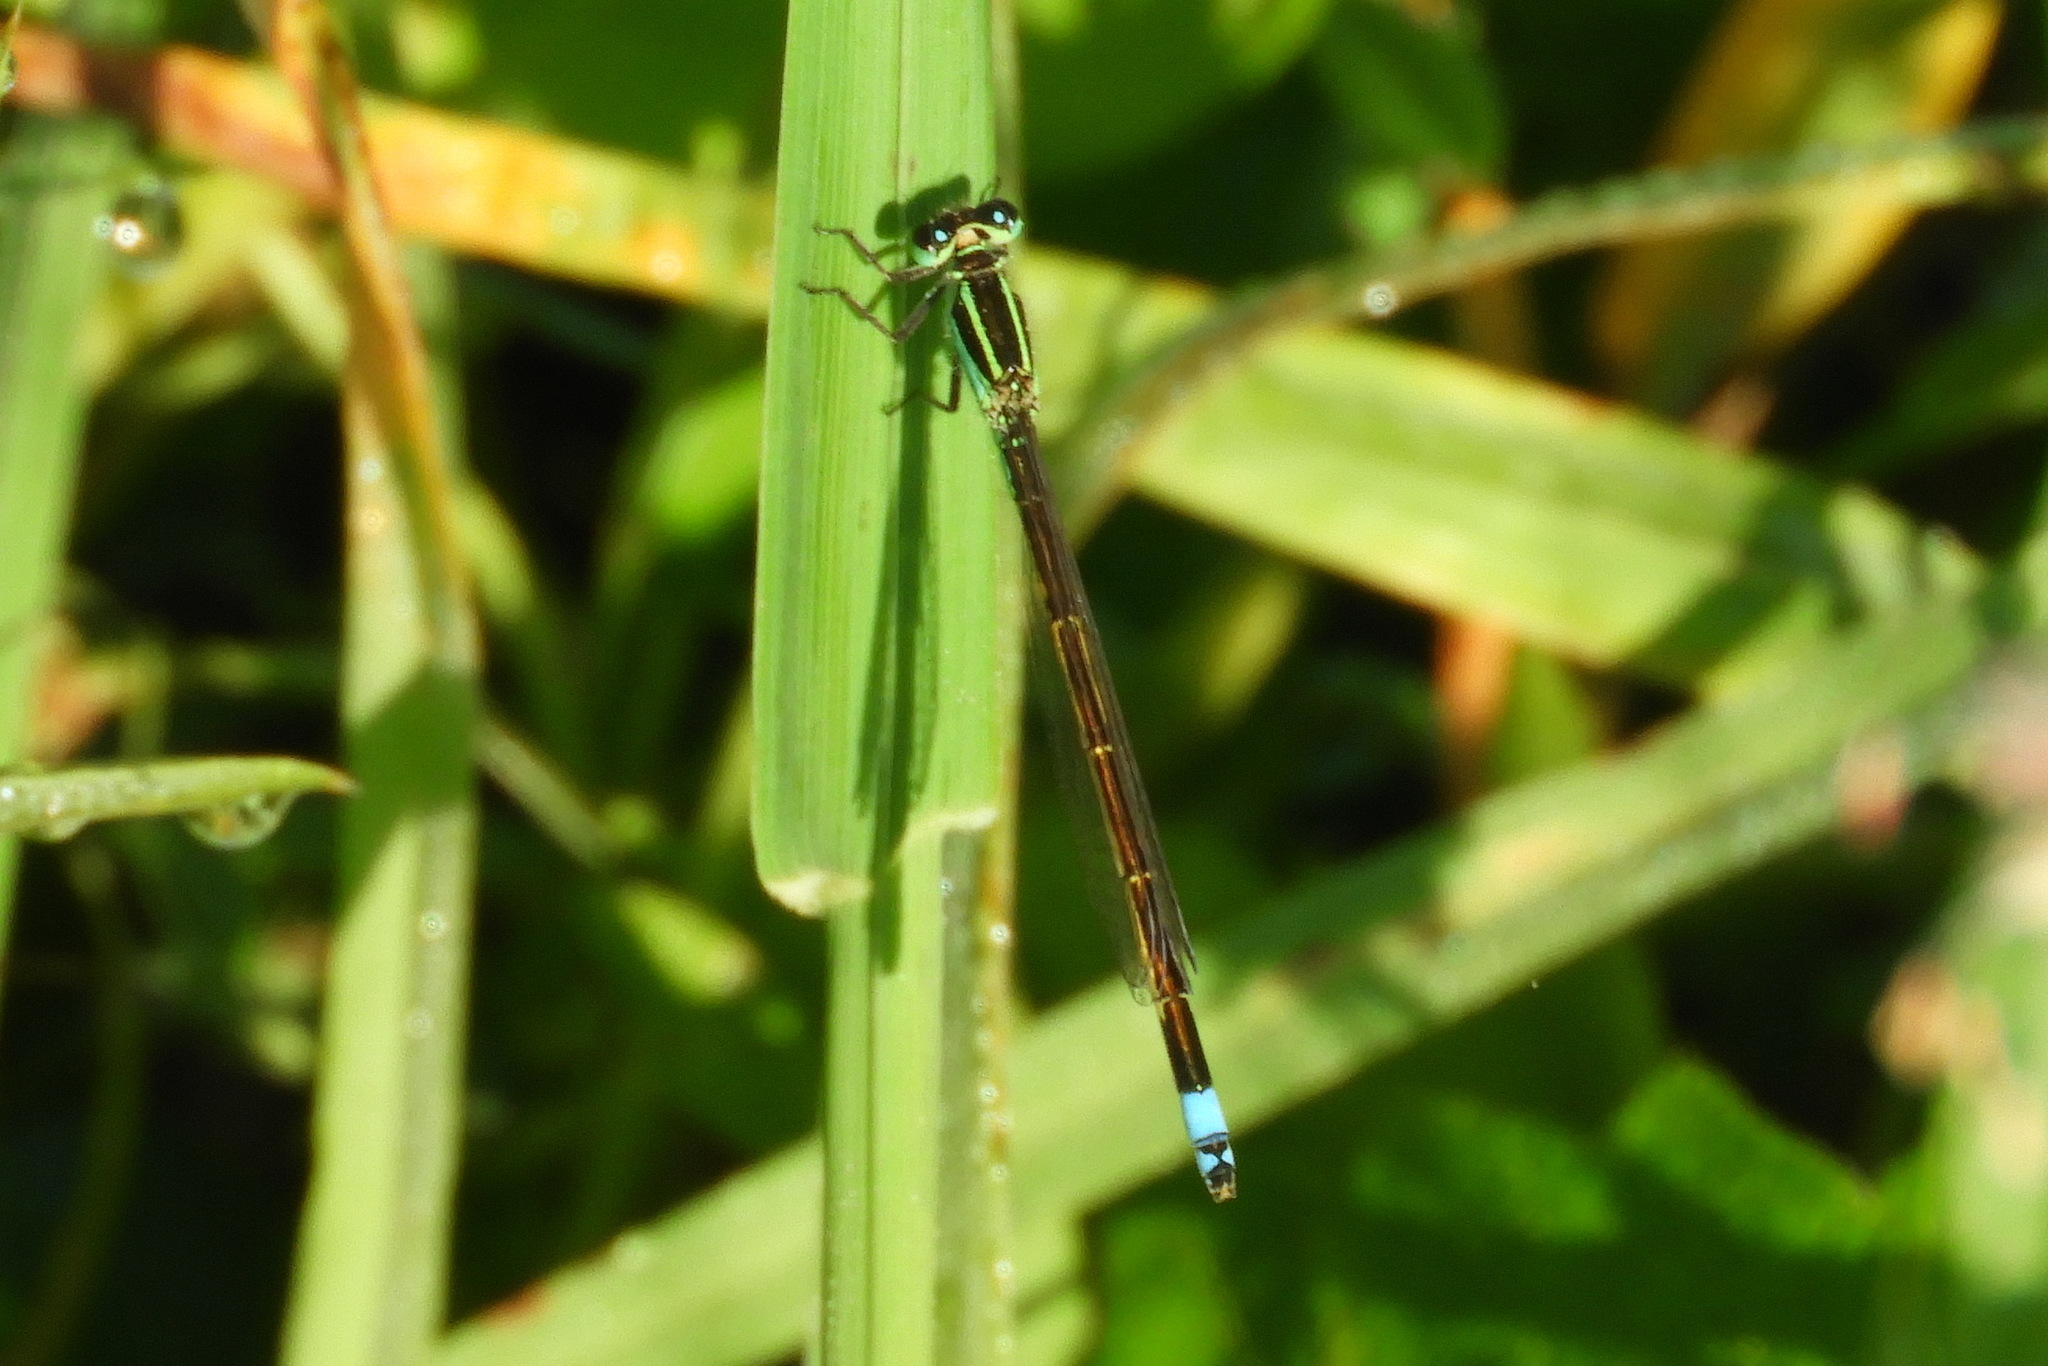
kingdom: Animalia
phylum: Arthropoda
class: Insecta
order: Odonata
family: Coenagrionidae
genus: Ischnura
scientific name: Ischnura ramburii
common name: Rambur's forktail
